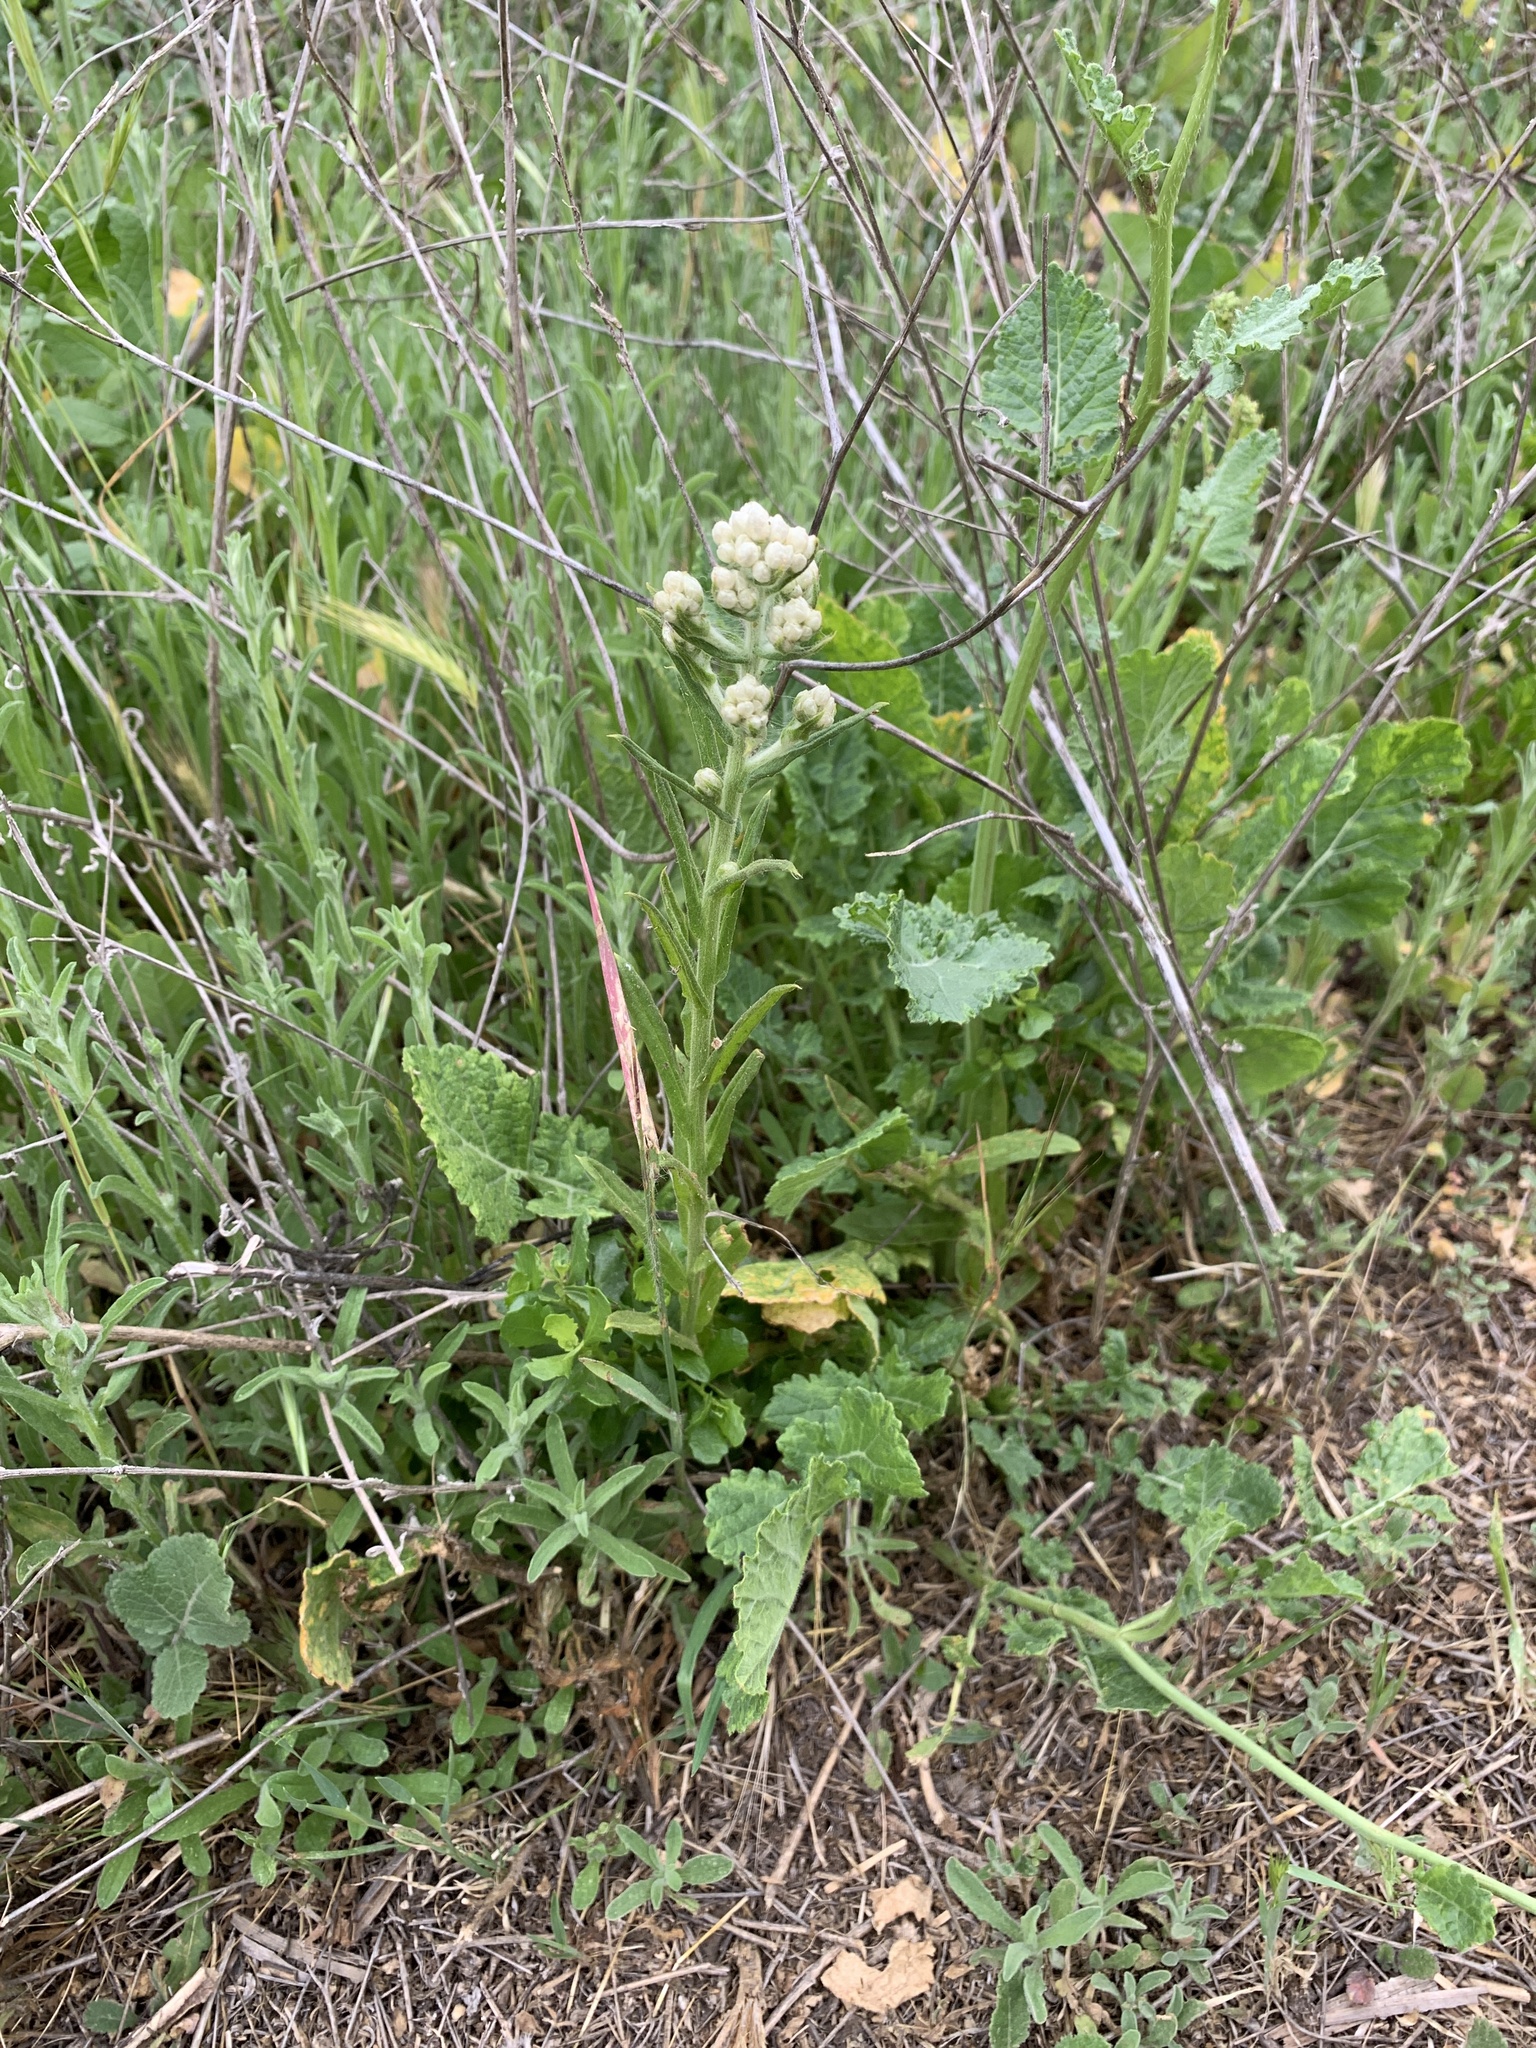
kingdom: Plantae
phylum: Tracheophyta
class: Magnoliopsida
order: Asterales
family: Asteraceae
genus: Pseudognaphalium
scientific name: Pseudognaphalium californicum
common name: California rabbit-tobacco
